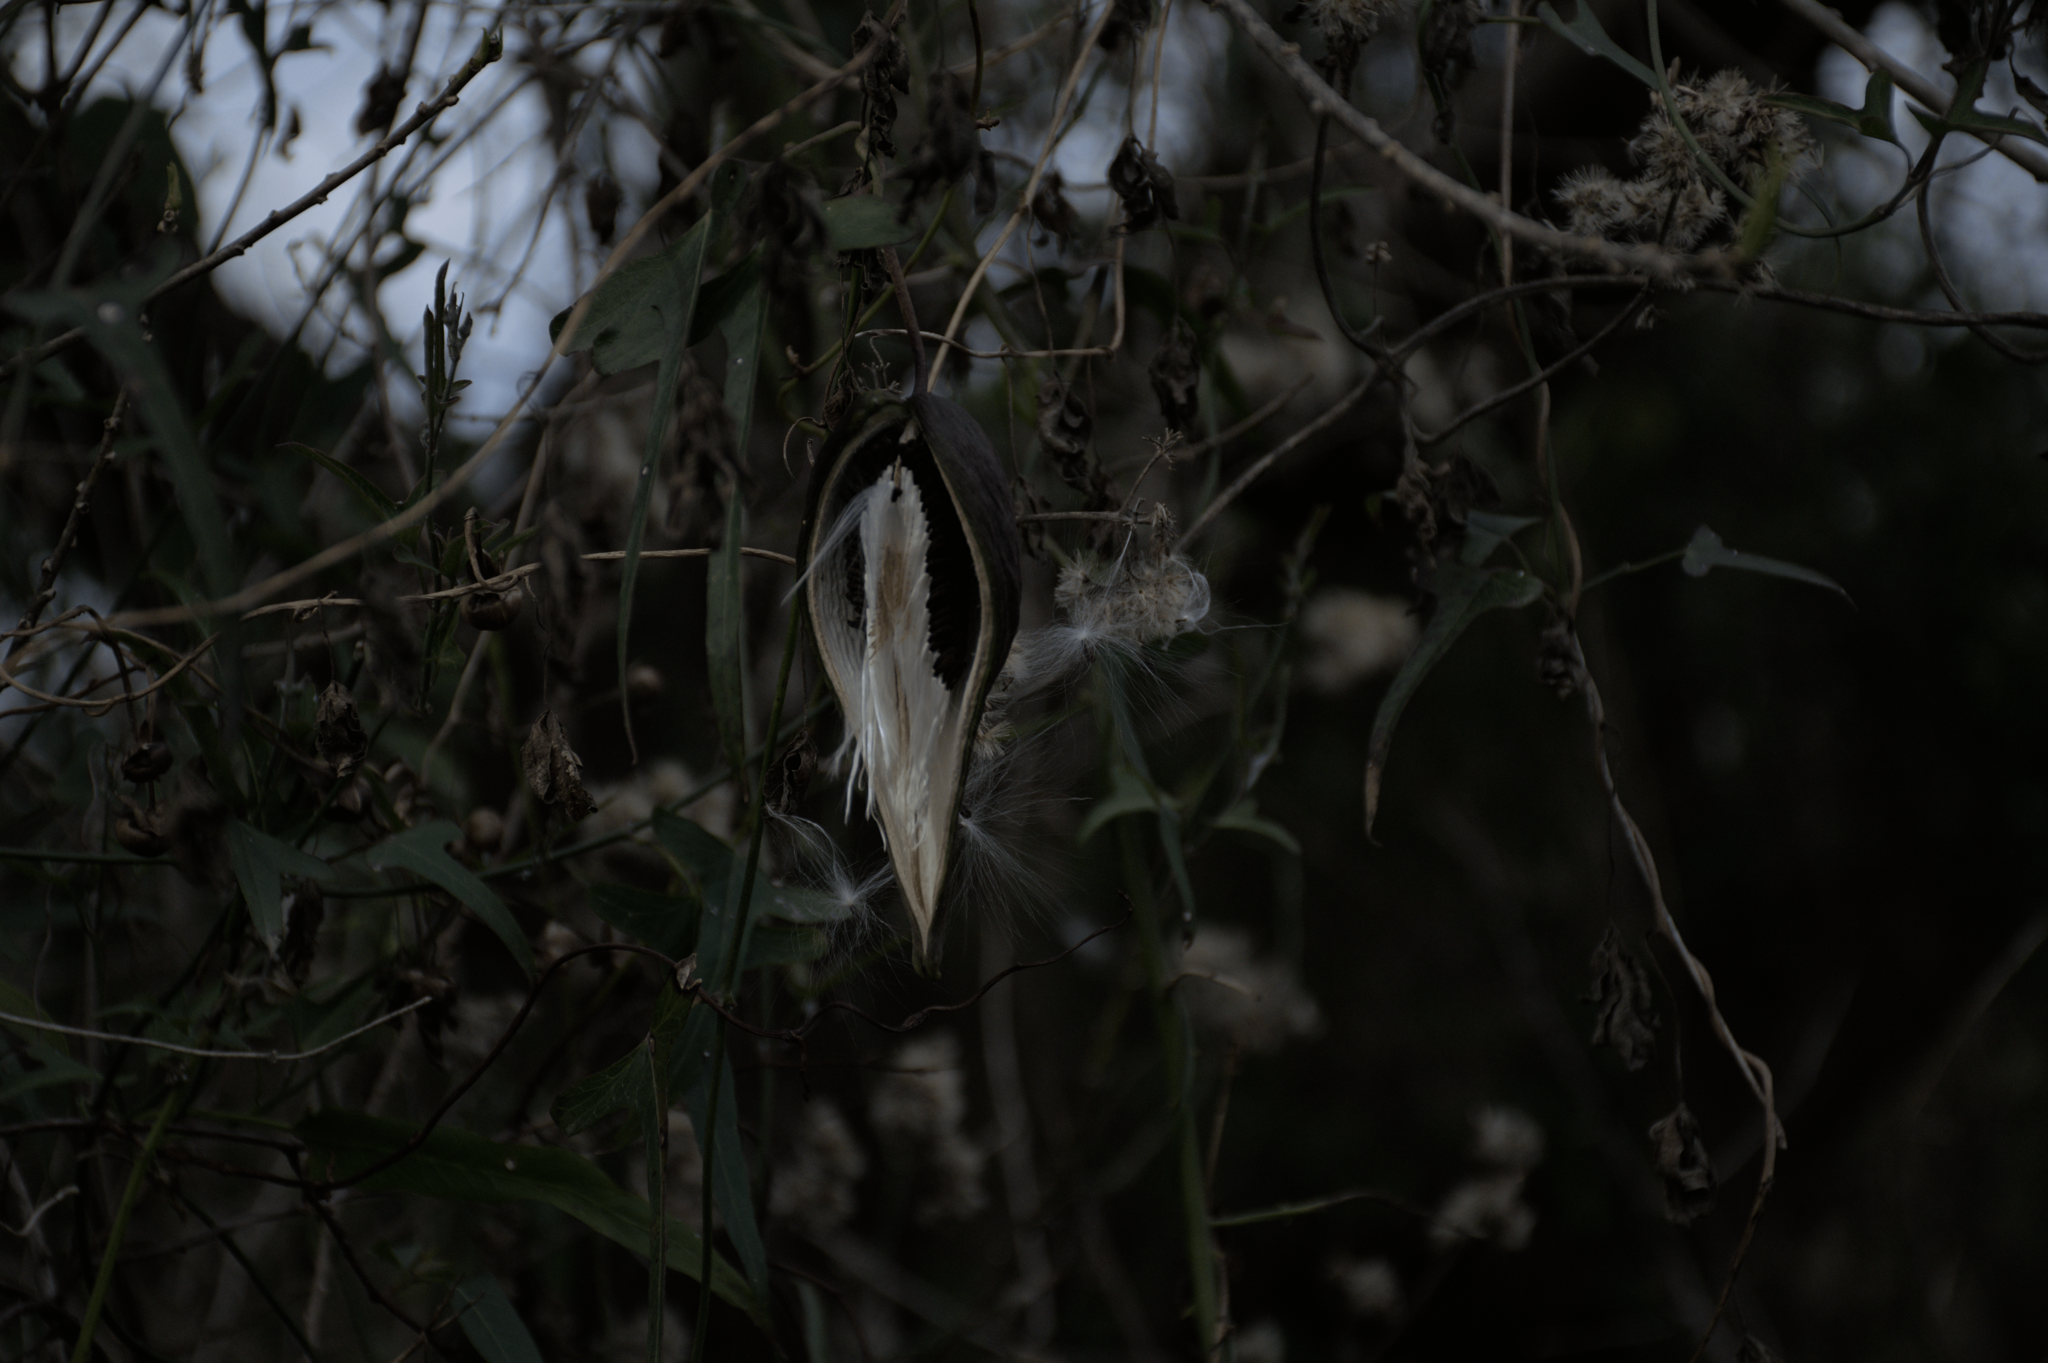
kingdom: Plantae
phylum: Tracheophyta
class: Magnoliopsida
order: Gentianales
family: Apocynaceae
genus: Araujia
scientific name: Araujia angustifolia
